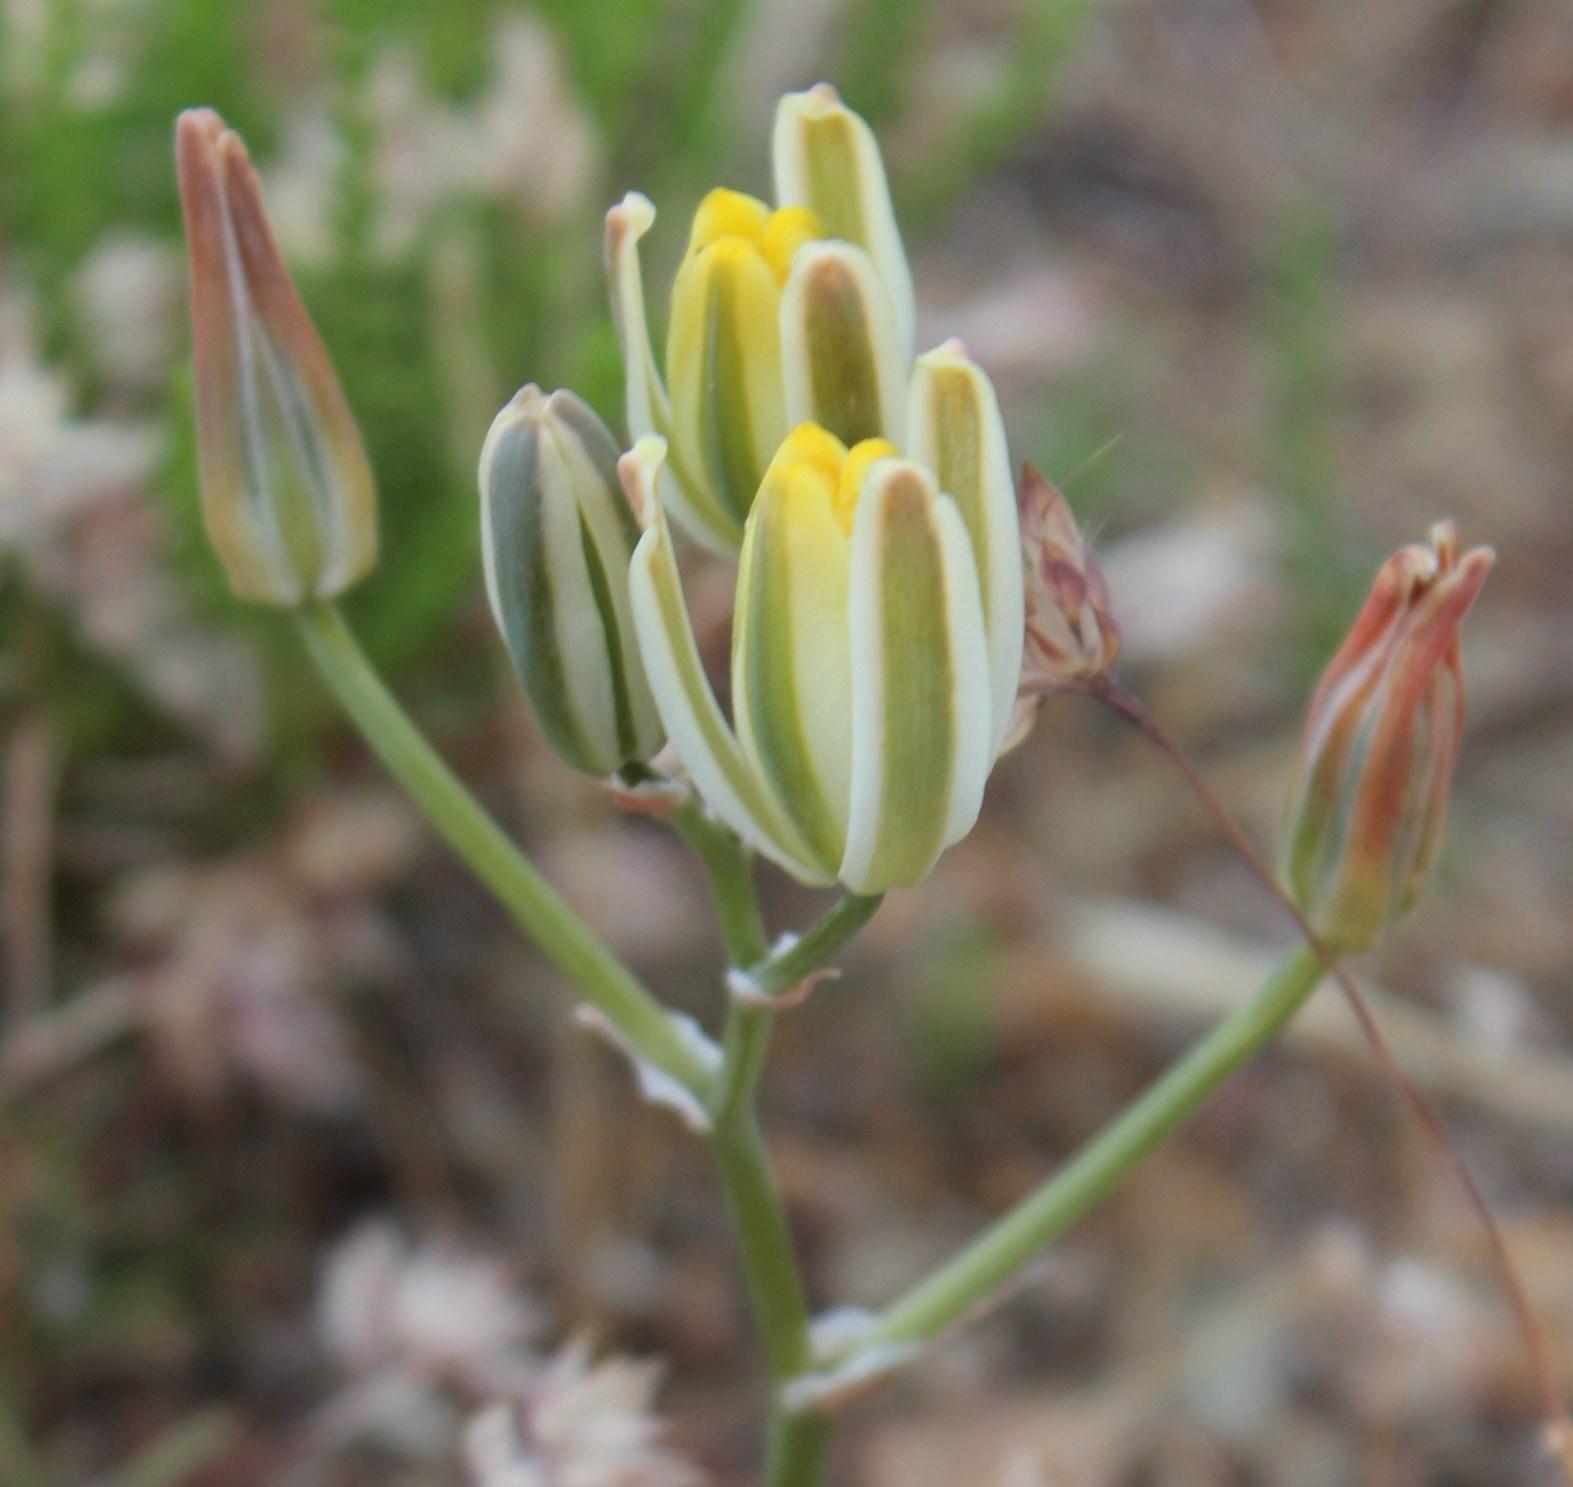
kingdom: Plantae
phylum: Tracheophyta
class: Liliopsida
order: Asparagales
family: Asparagaceae
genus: Albuca
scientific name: Albuca longipes
